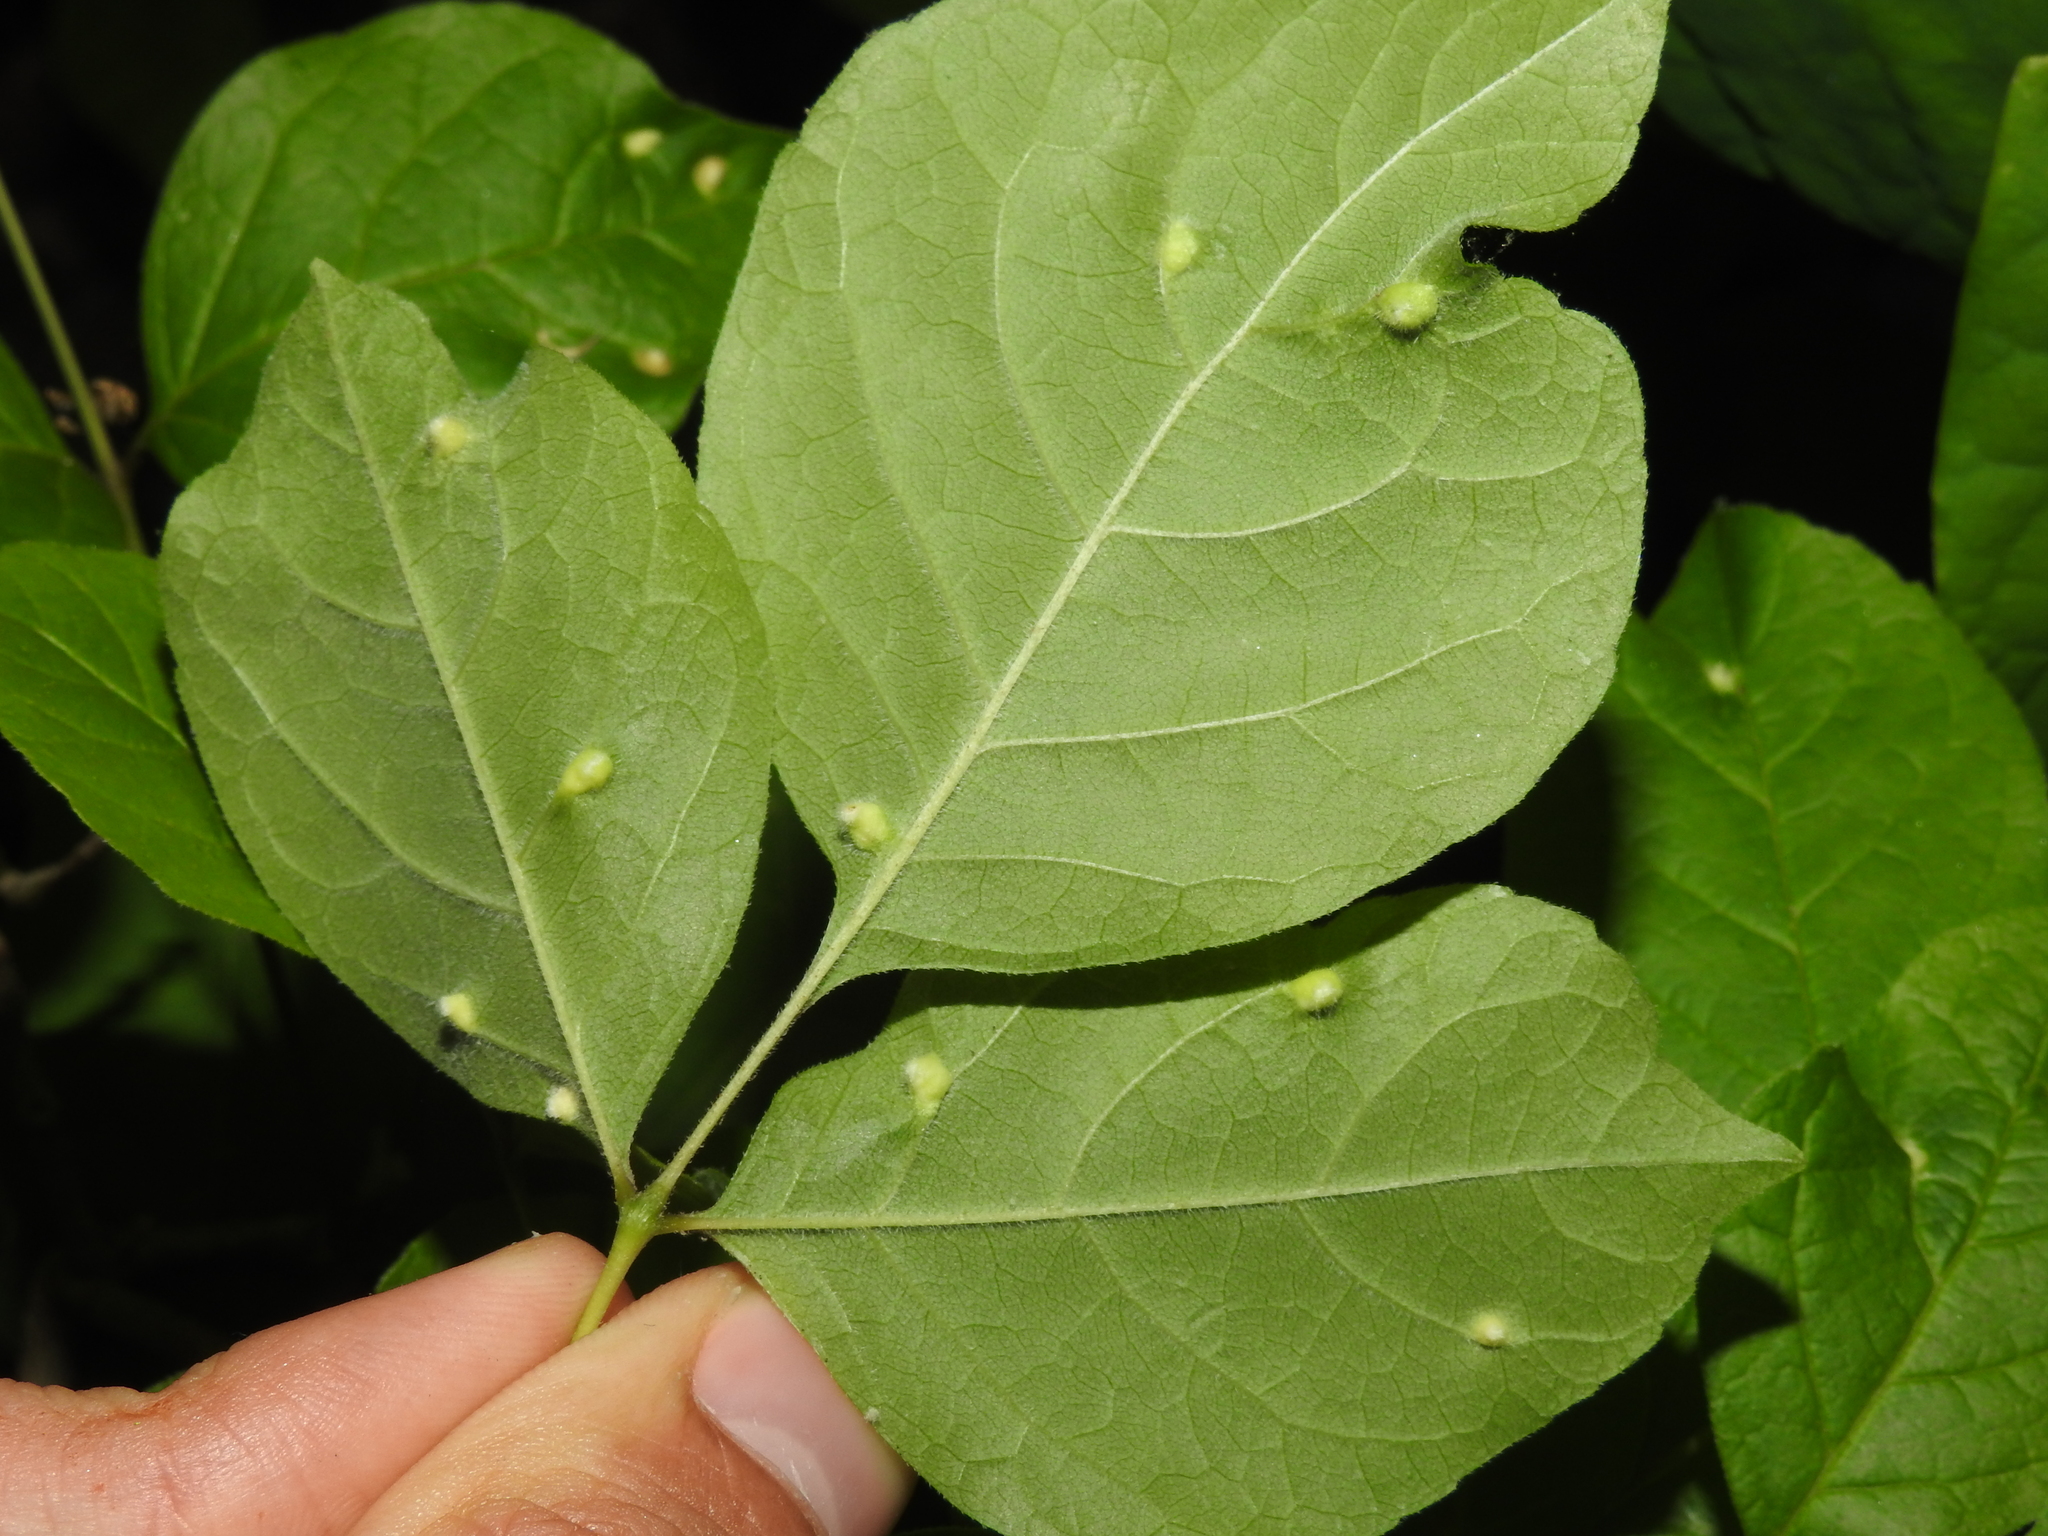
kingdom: Animalia
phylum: Arthropoda
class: Arachnida
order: Trombidiformes
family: Eriophyidae
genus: Aceria
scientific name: Aceria fraxinicola
